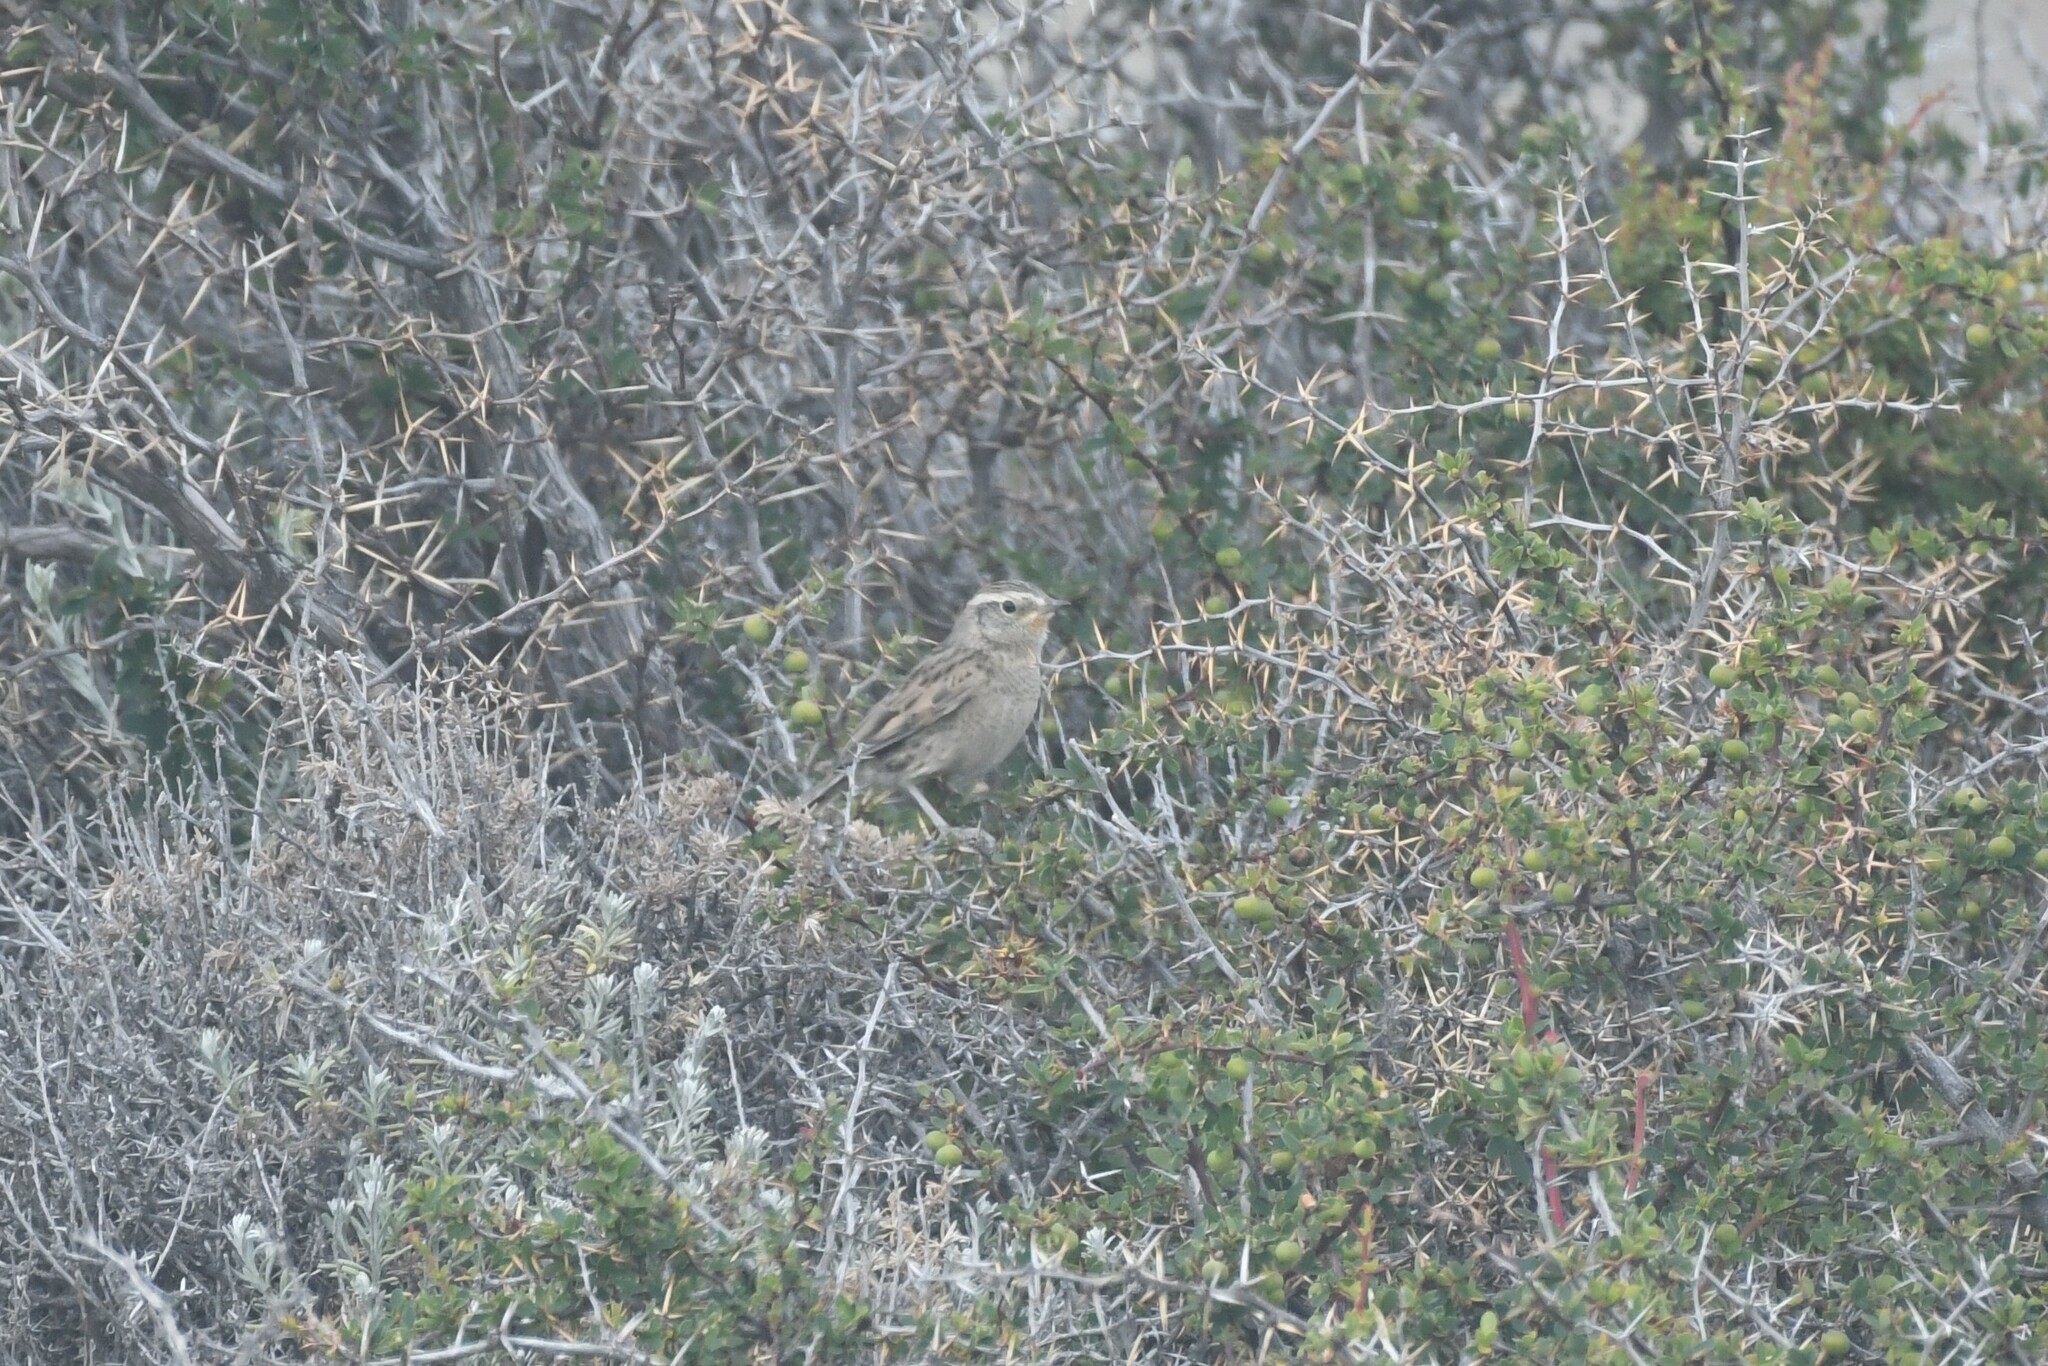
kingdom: Animalia
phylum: Chordata
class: Aves
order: Passeriformes
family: Furnariidae
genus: Asthenes
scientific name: Asthenes anthoides
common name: Austral canastero
